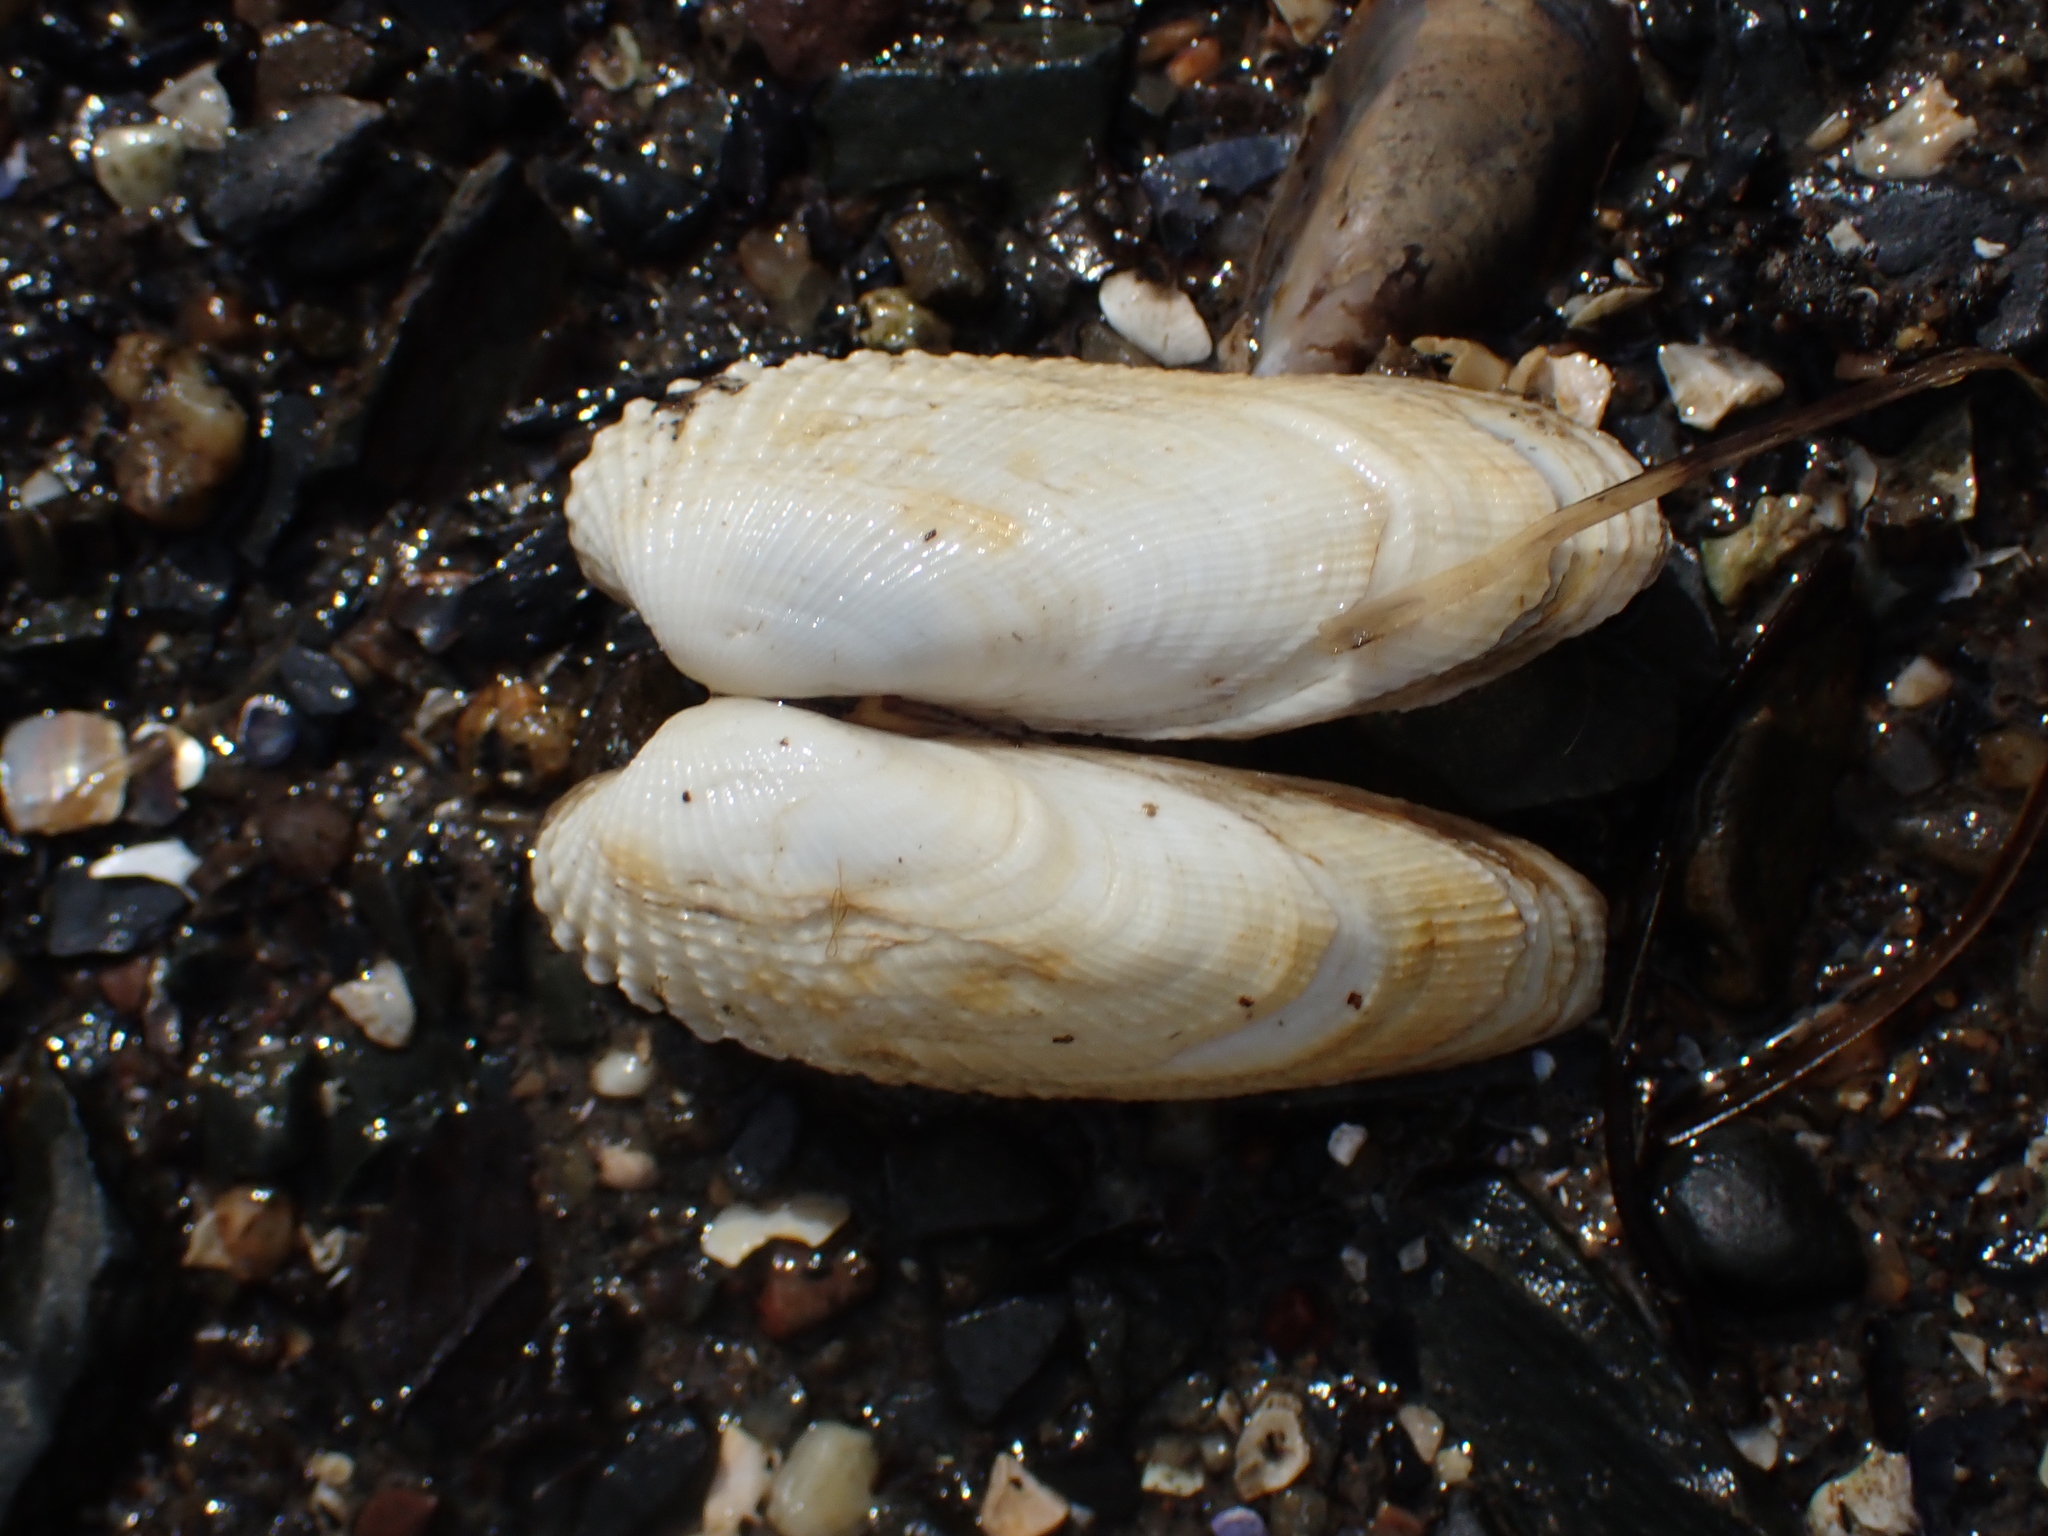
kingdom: Animalia
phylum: Mollusca
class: Bivalvia
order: Venerida
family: Veneridae
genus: Petricolaria
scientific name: Petricolaria pholadiformis
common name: American piddock
